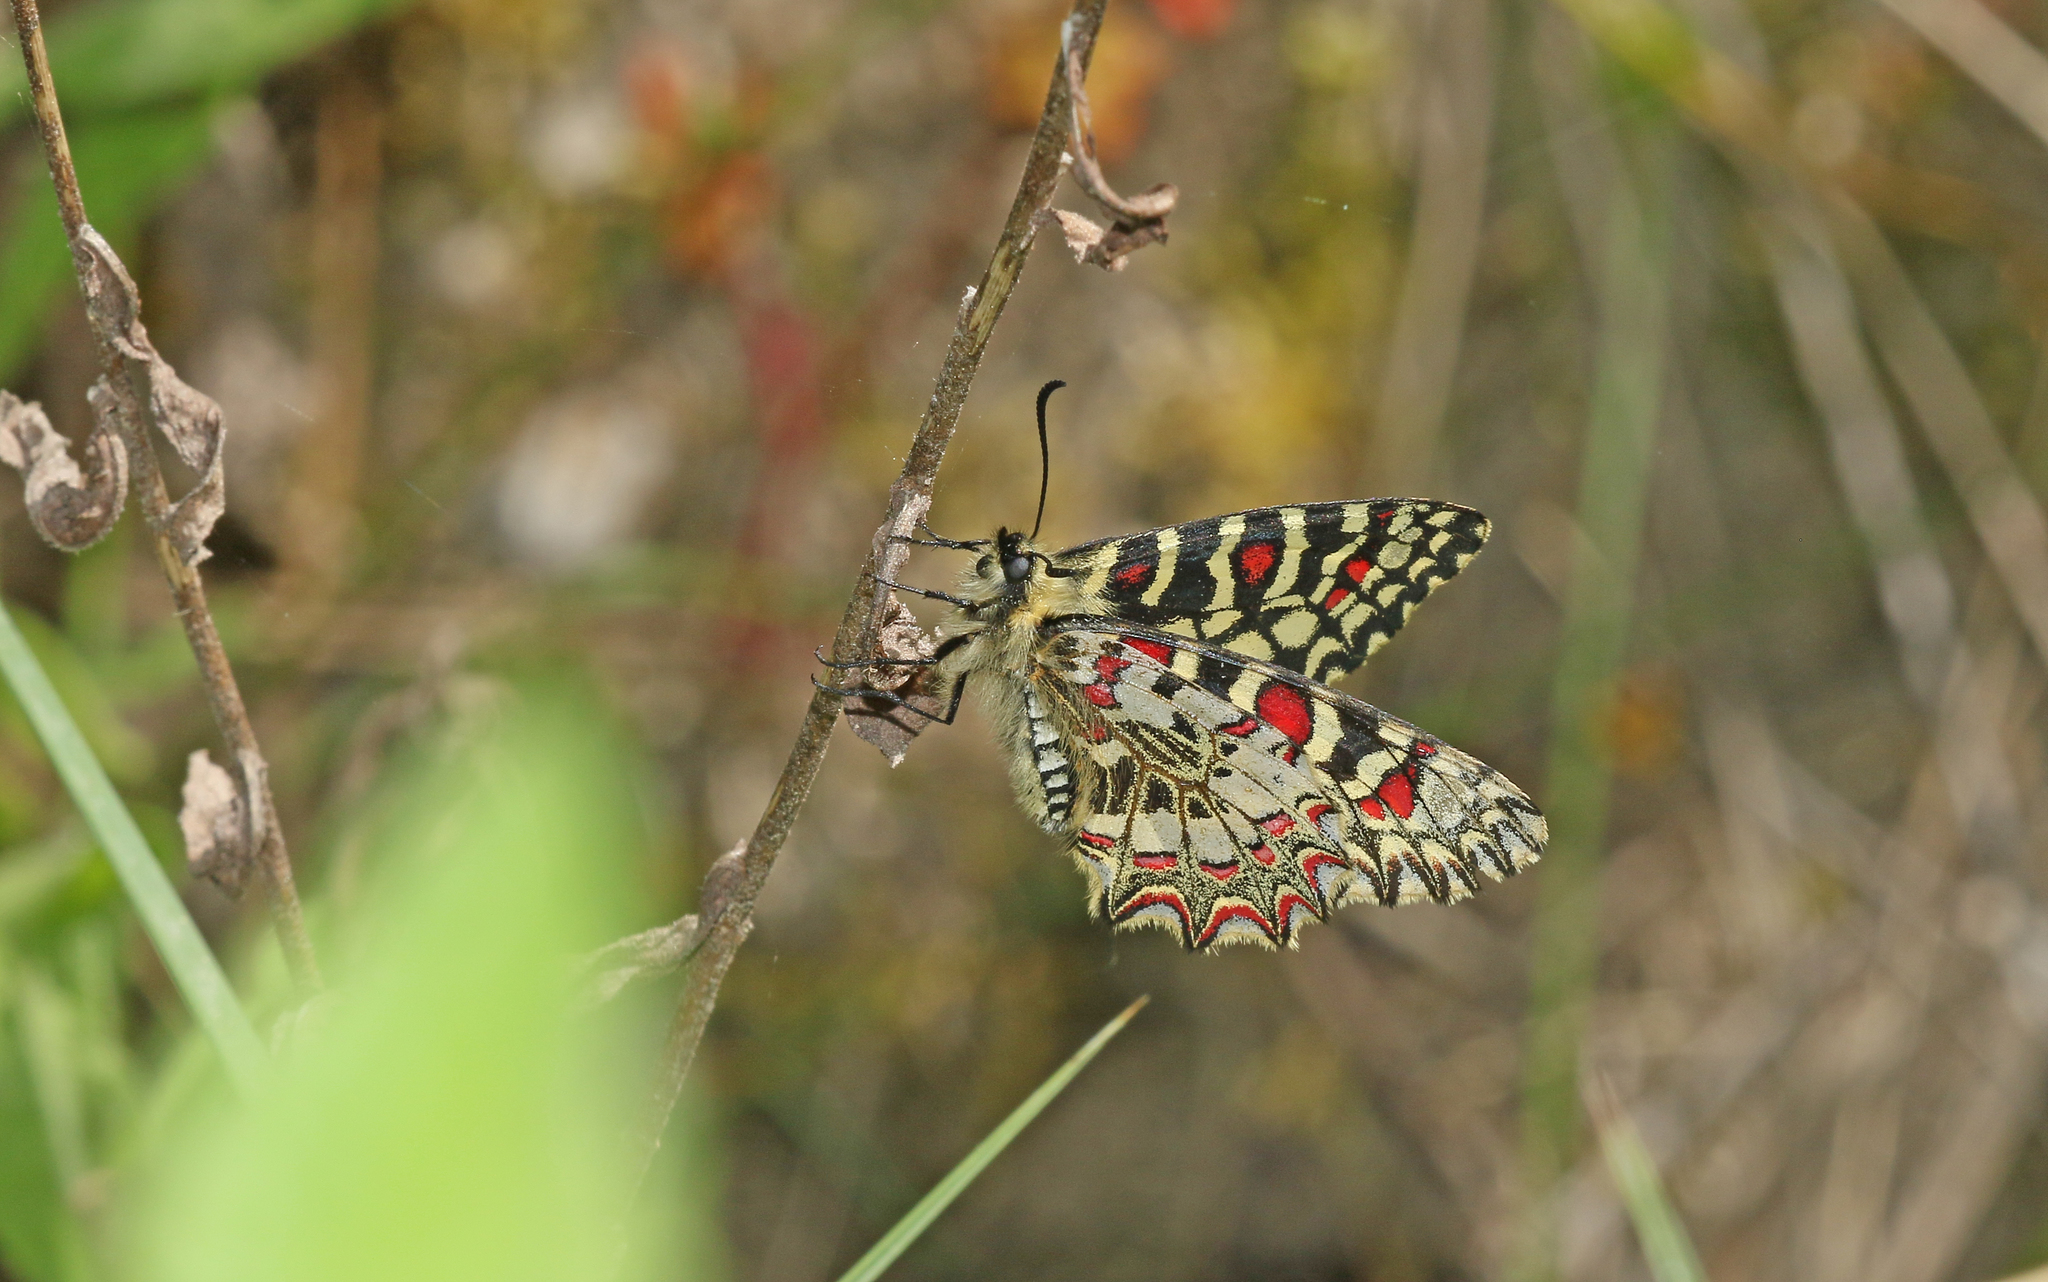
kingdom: Animalia
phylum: Arthropoda
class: Insecta
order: Lepidoptera
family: Papilionidae
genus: Zerynthia
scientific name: Zerynthia rumina
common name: Spanish festoon
